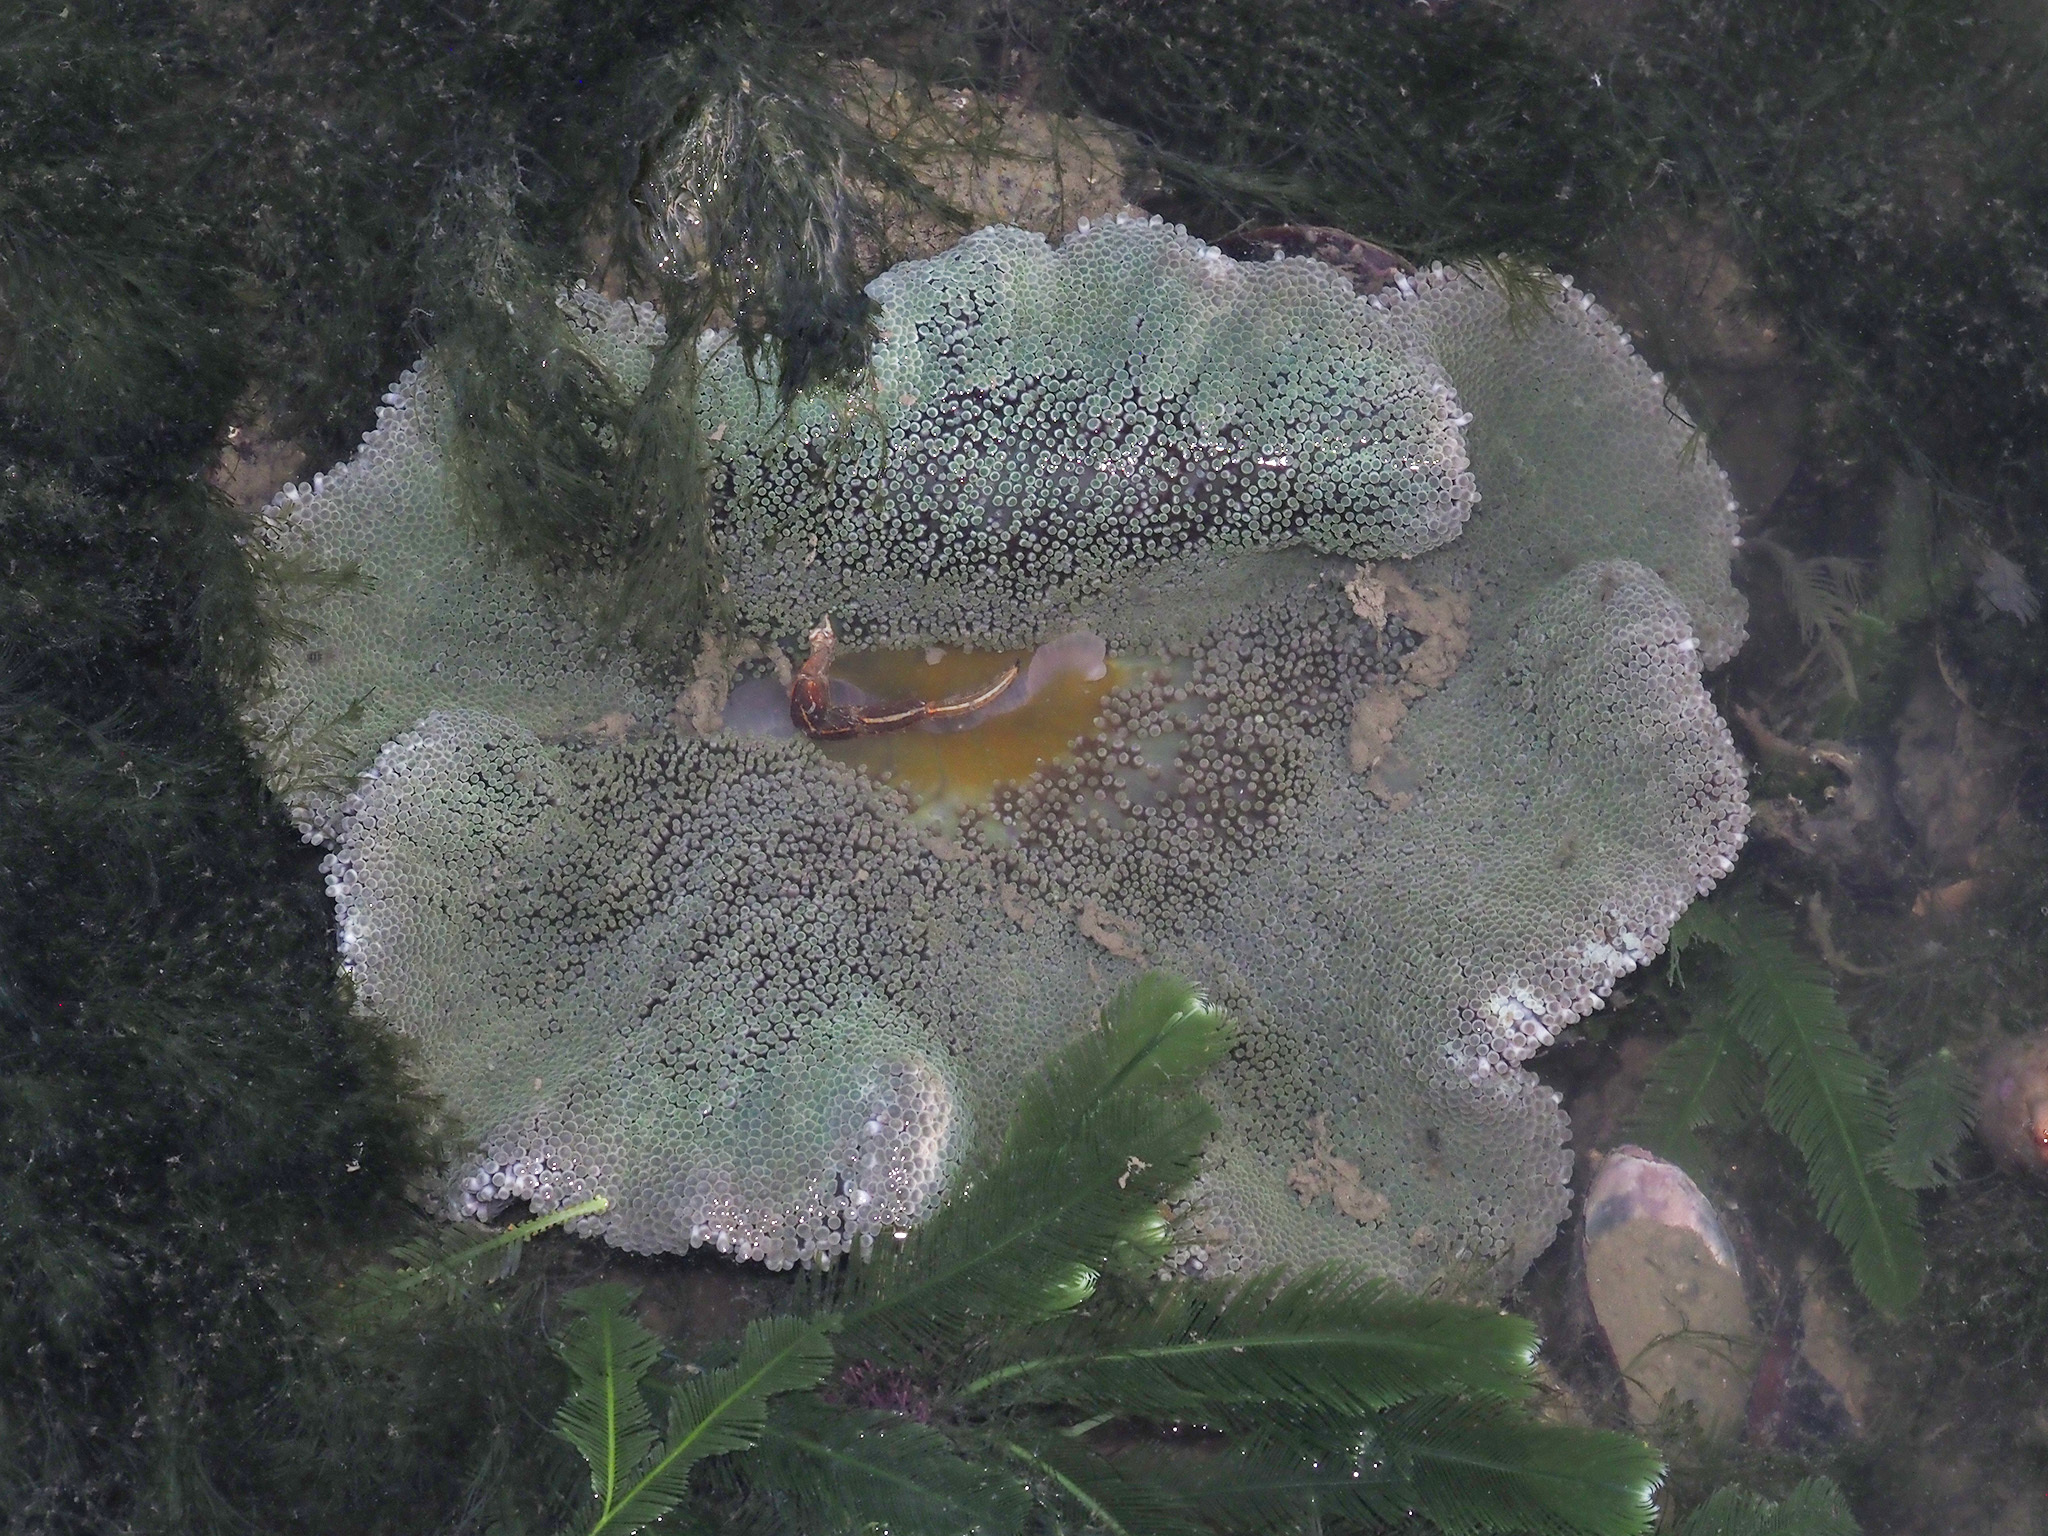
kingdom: Animalia
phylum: Cnidaria
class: Anthozoa
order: Actiniaria
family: Stichodactylidae
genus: Stichodactyla
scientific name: Stichodactyla haddoni
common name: Haddon's sea anemone
